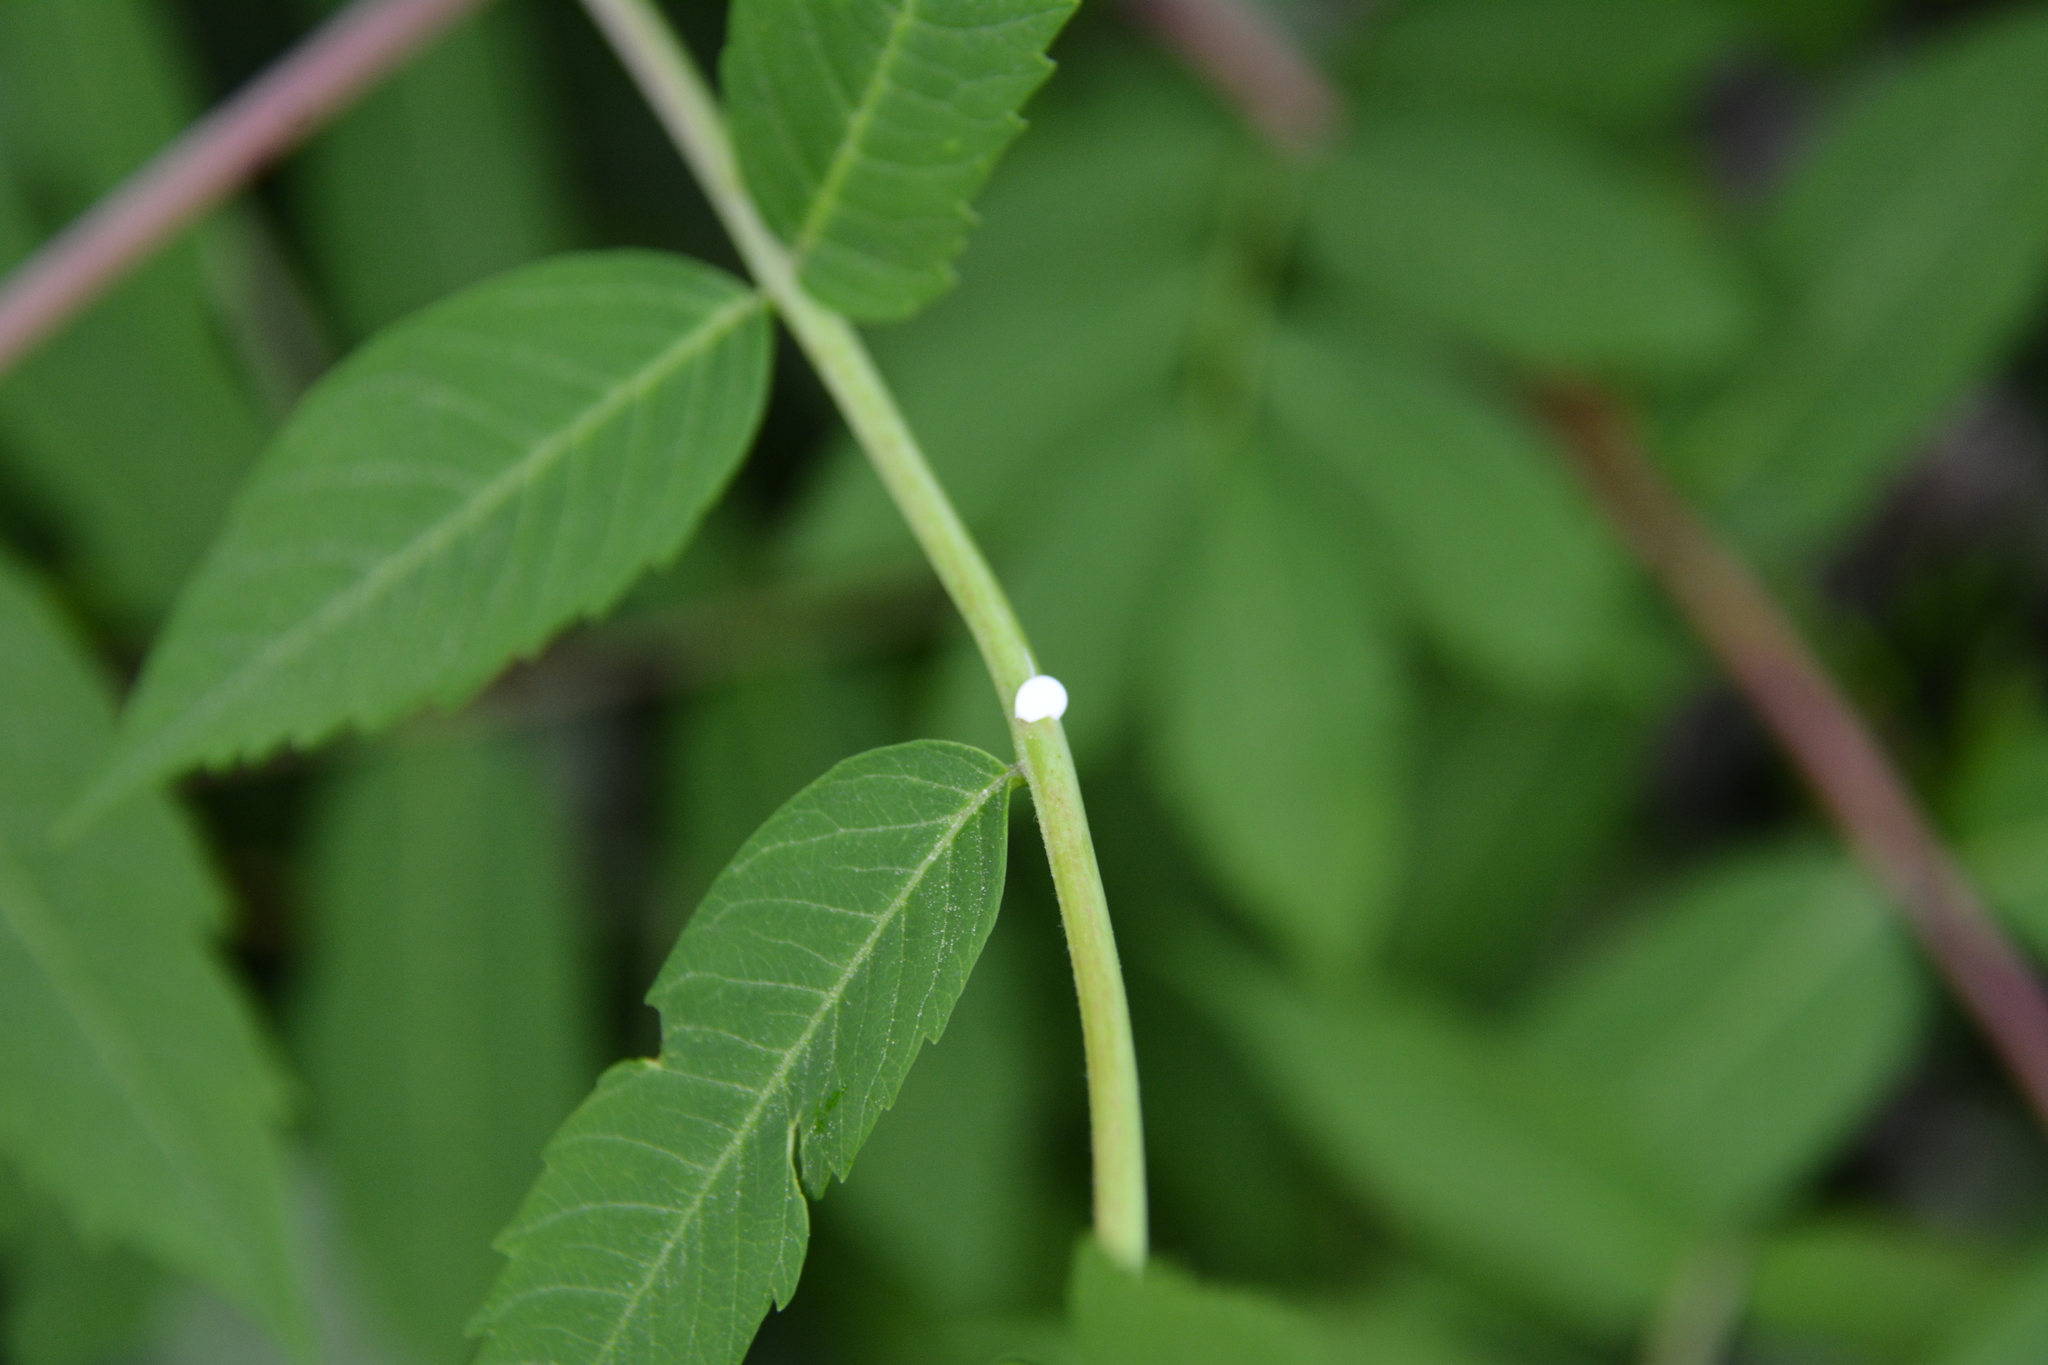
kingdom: Plantae
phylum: Tracheophyta
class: Magnoliopsida
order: Sapindales
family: Anacardiaceae
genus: Rhus
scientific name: Rhus glabra
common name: Scarlet sumac
